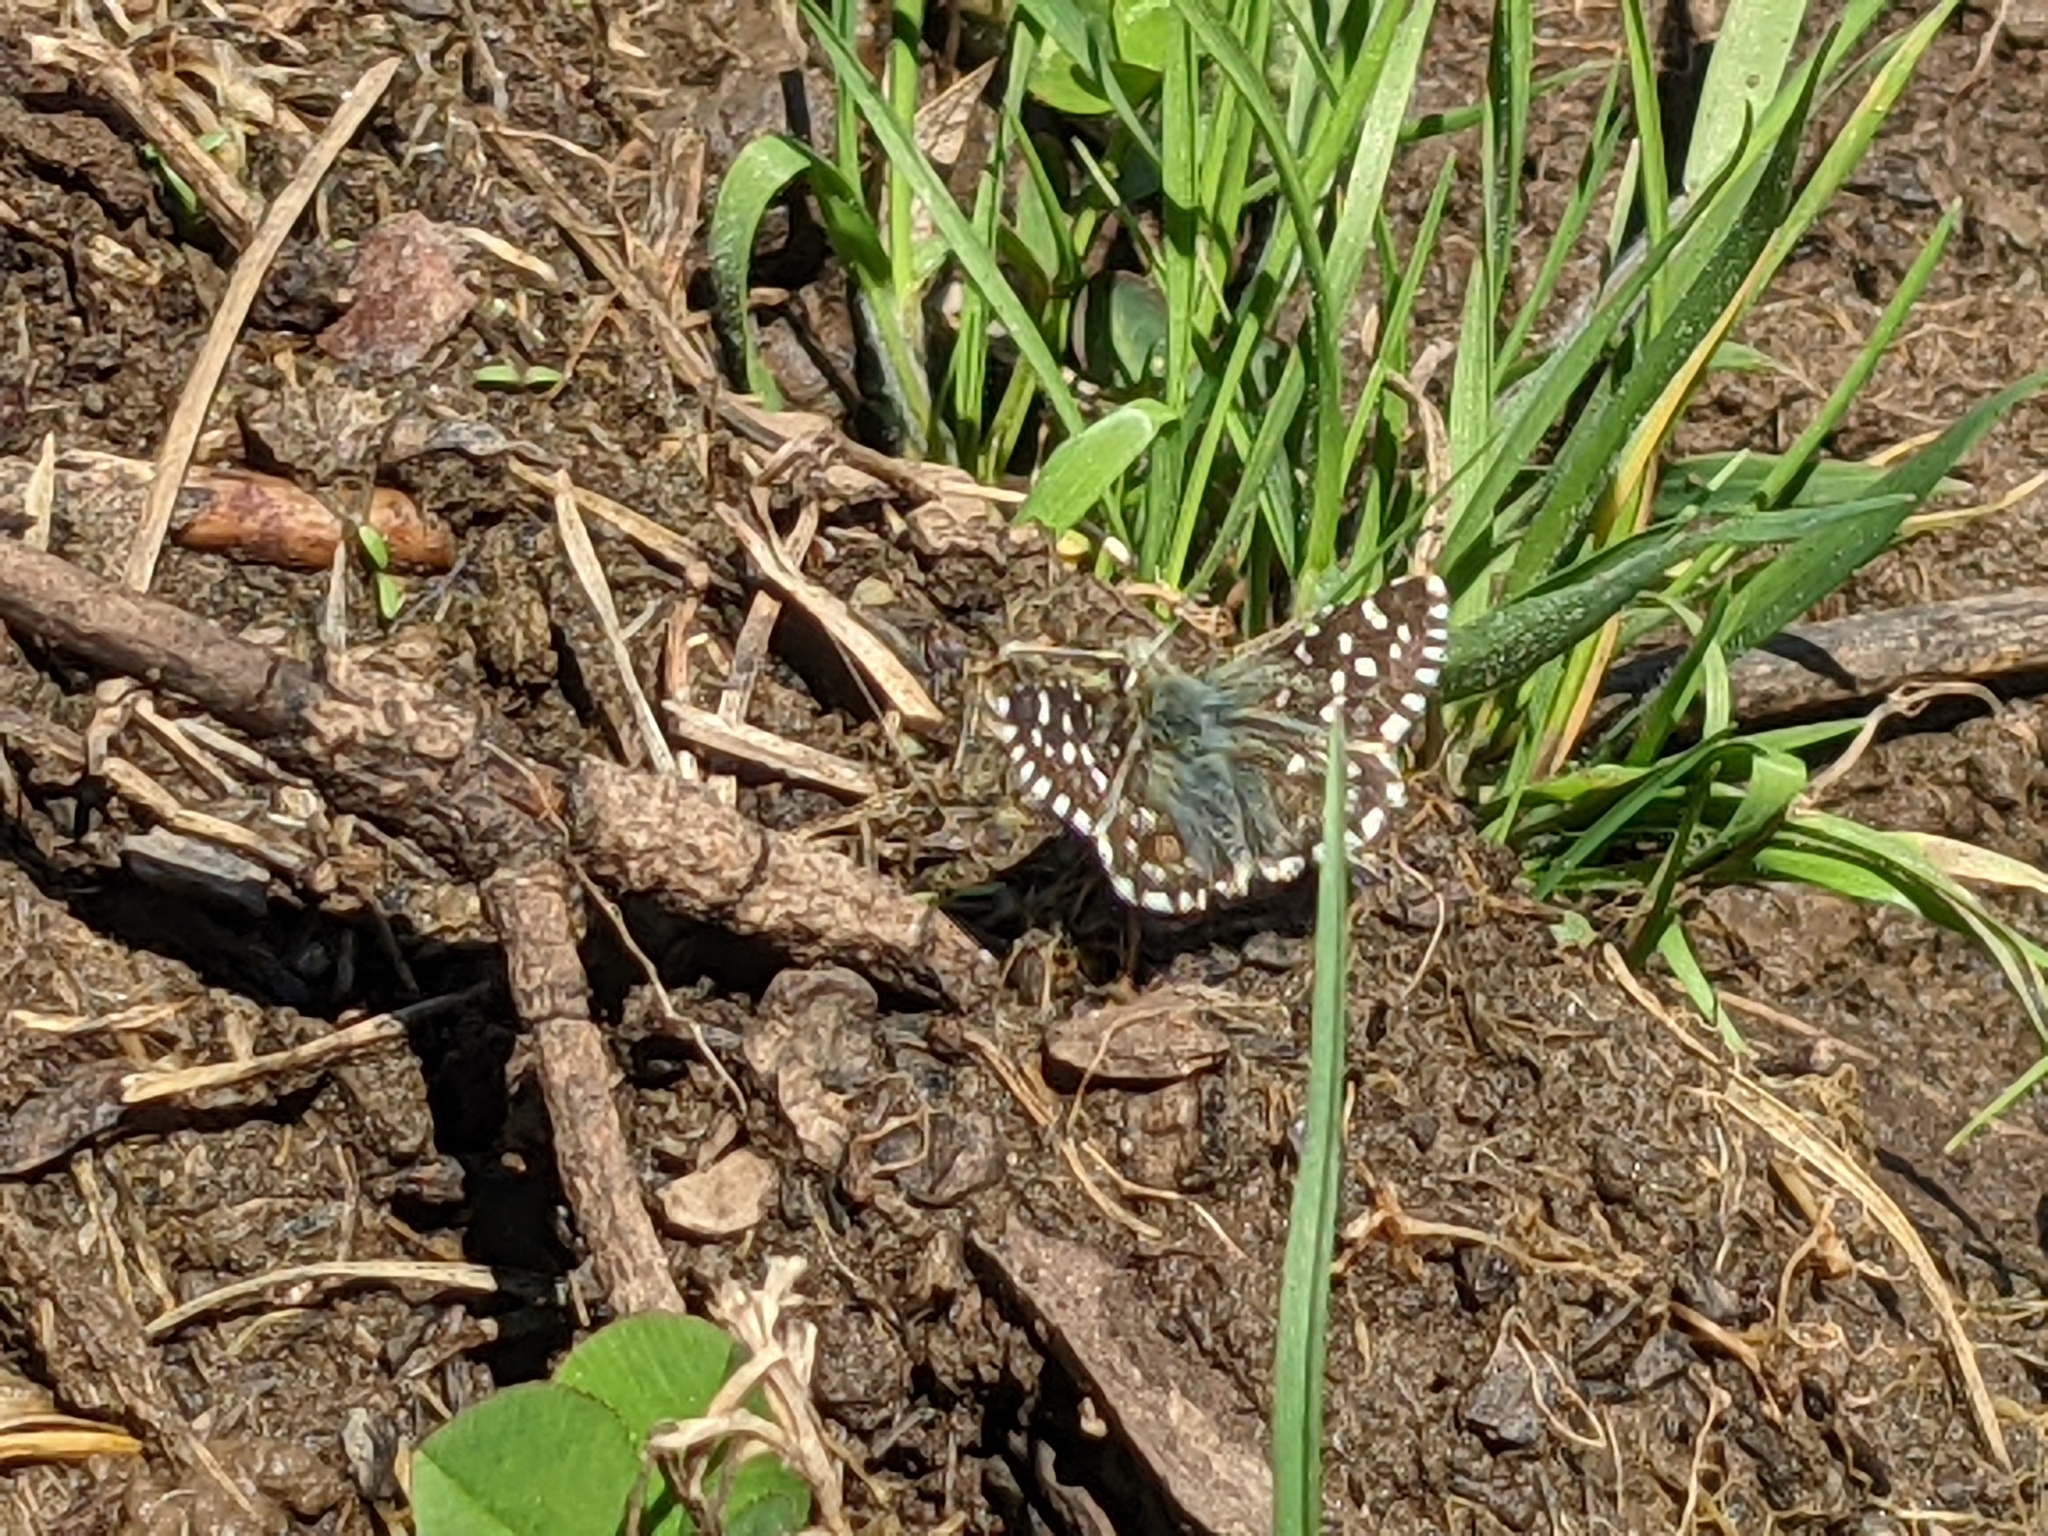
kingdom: Animalia
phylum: Arthropoda
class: Insecta
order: Lepidoptera
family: Hesperiidae
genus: Pyrgus
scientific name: Pyrgus malvoides
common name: Southern grizzled skipper
